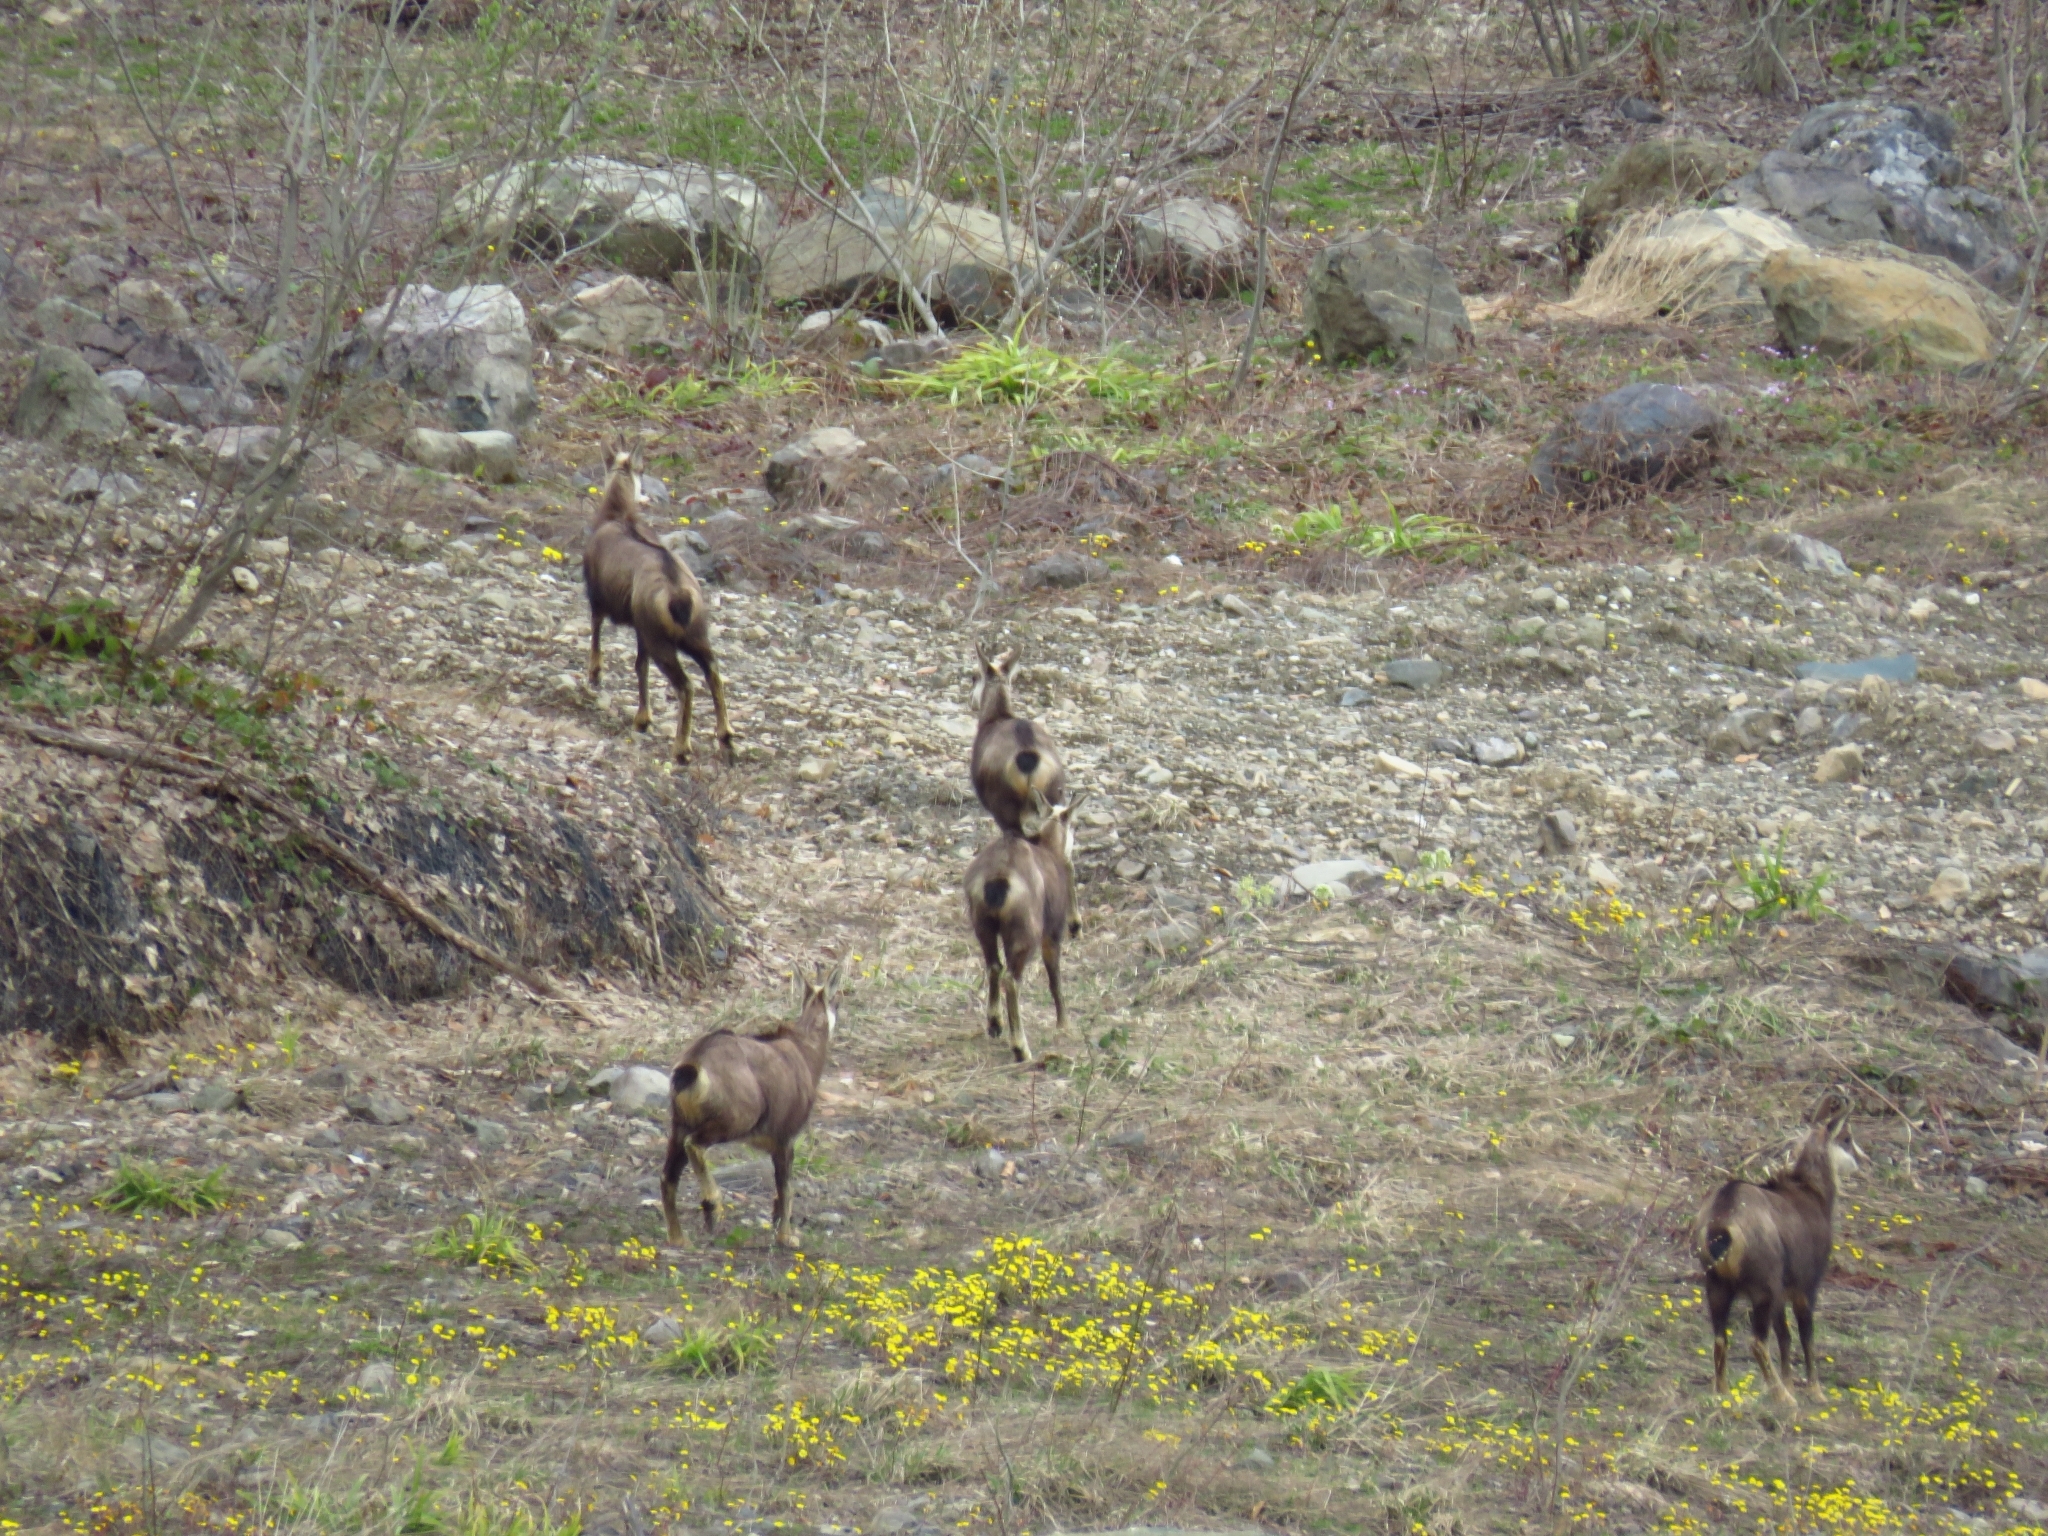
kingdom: Animalia
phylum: Chordata
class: Mammalia
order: Artiodactyla
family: Bovidae
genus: Rupicapra
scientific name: Rupicapra rupicapra
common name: Chamois
